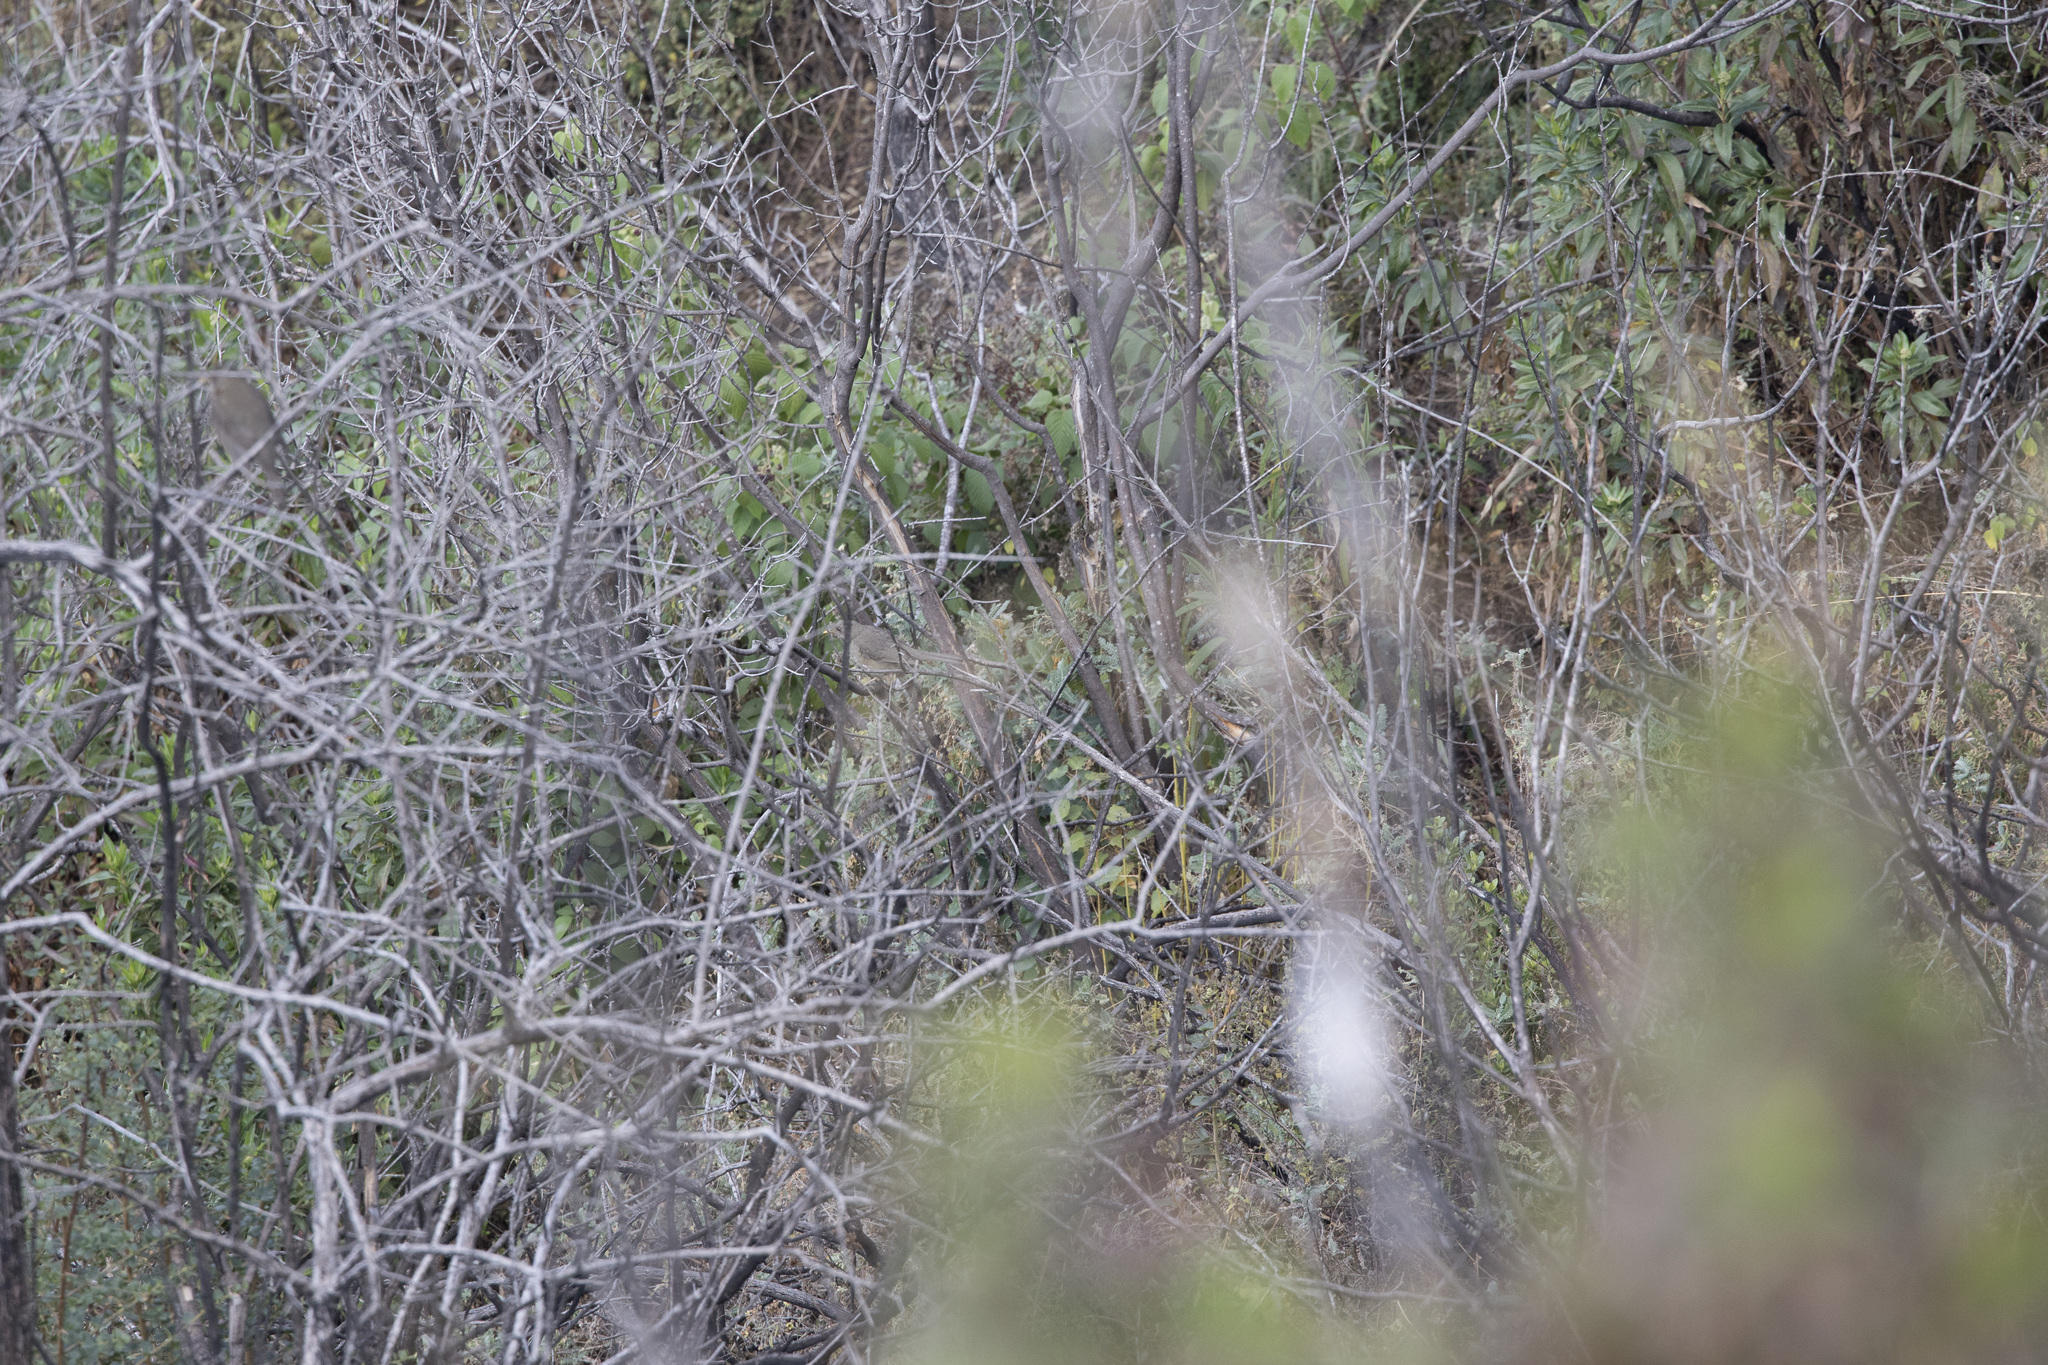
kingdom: Animalia
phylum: Chordata
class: Aves
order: Passeriformes
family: Turdidae
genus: Turdus
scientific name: Turdus chiguanco
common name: Chiguanco thrush
